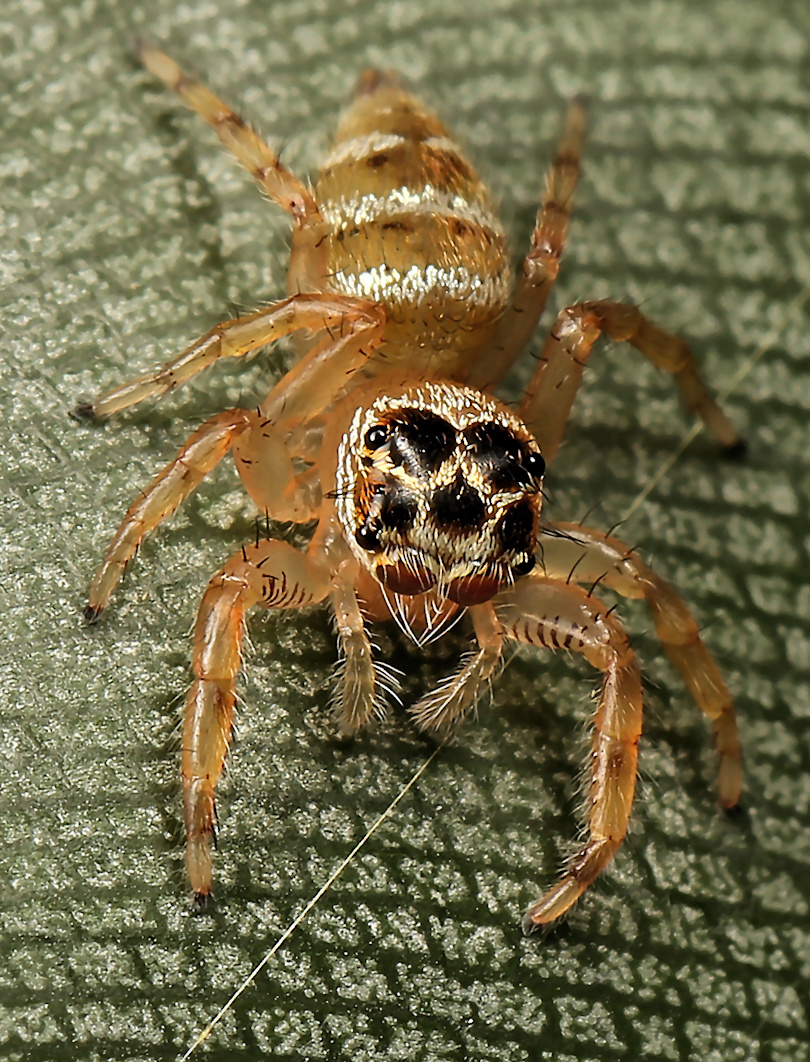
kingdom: Animalia
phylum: Arthropoda
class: Arachnida
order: Araneae
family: Salticidae
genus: Thyene
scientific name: Thyene natalii
